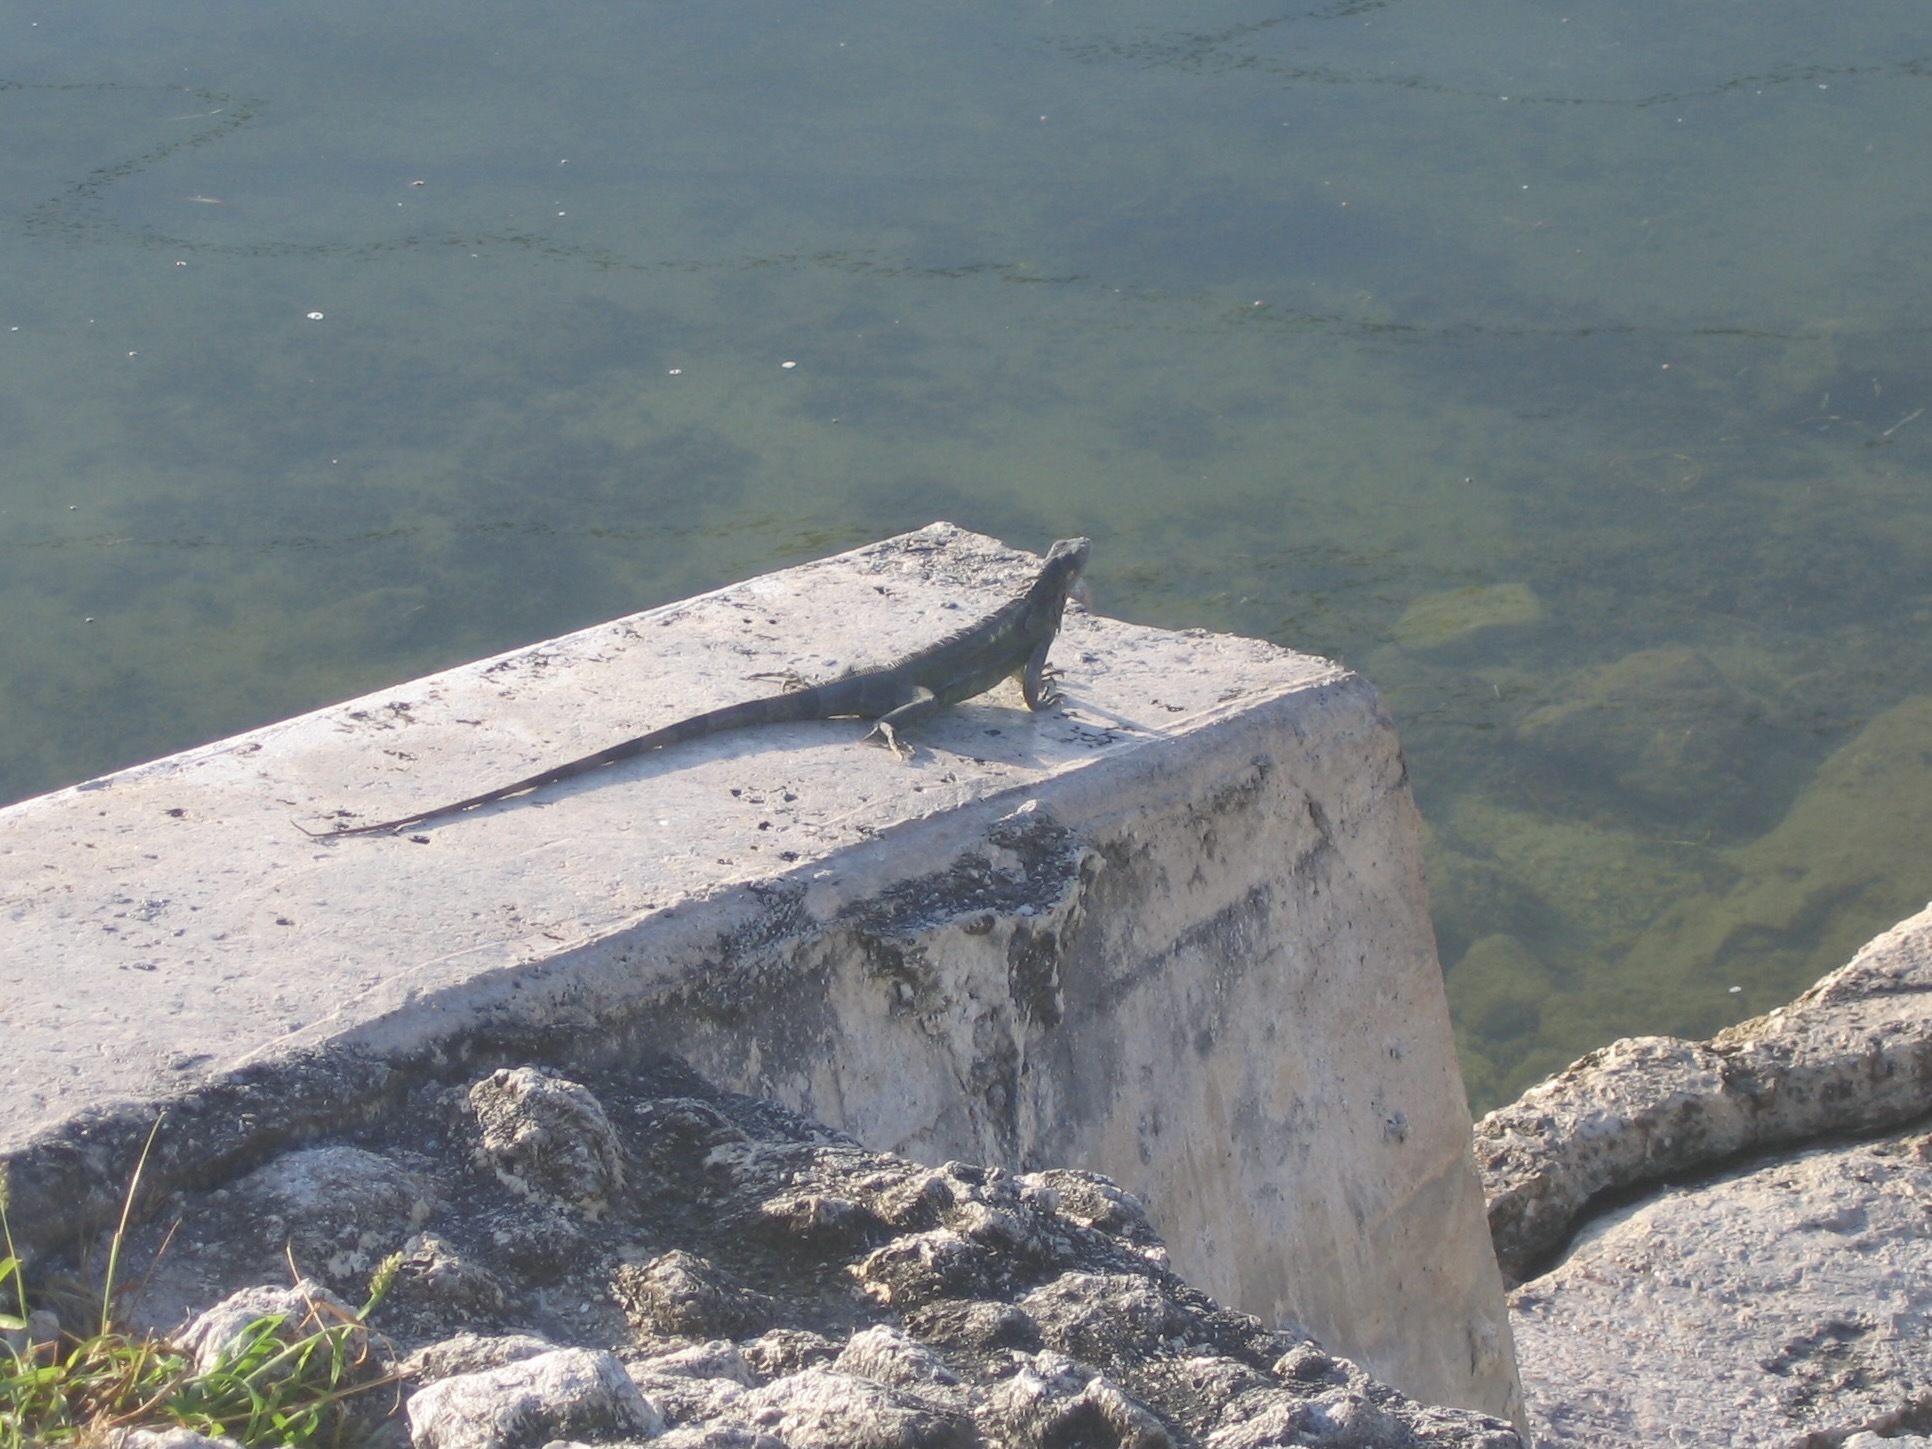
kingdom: Animalia
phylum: Chordata
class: Squamata
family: Iguanidae
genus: Iguana
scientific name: Iguana iguana
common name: Green iguana
